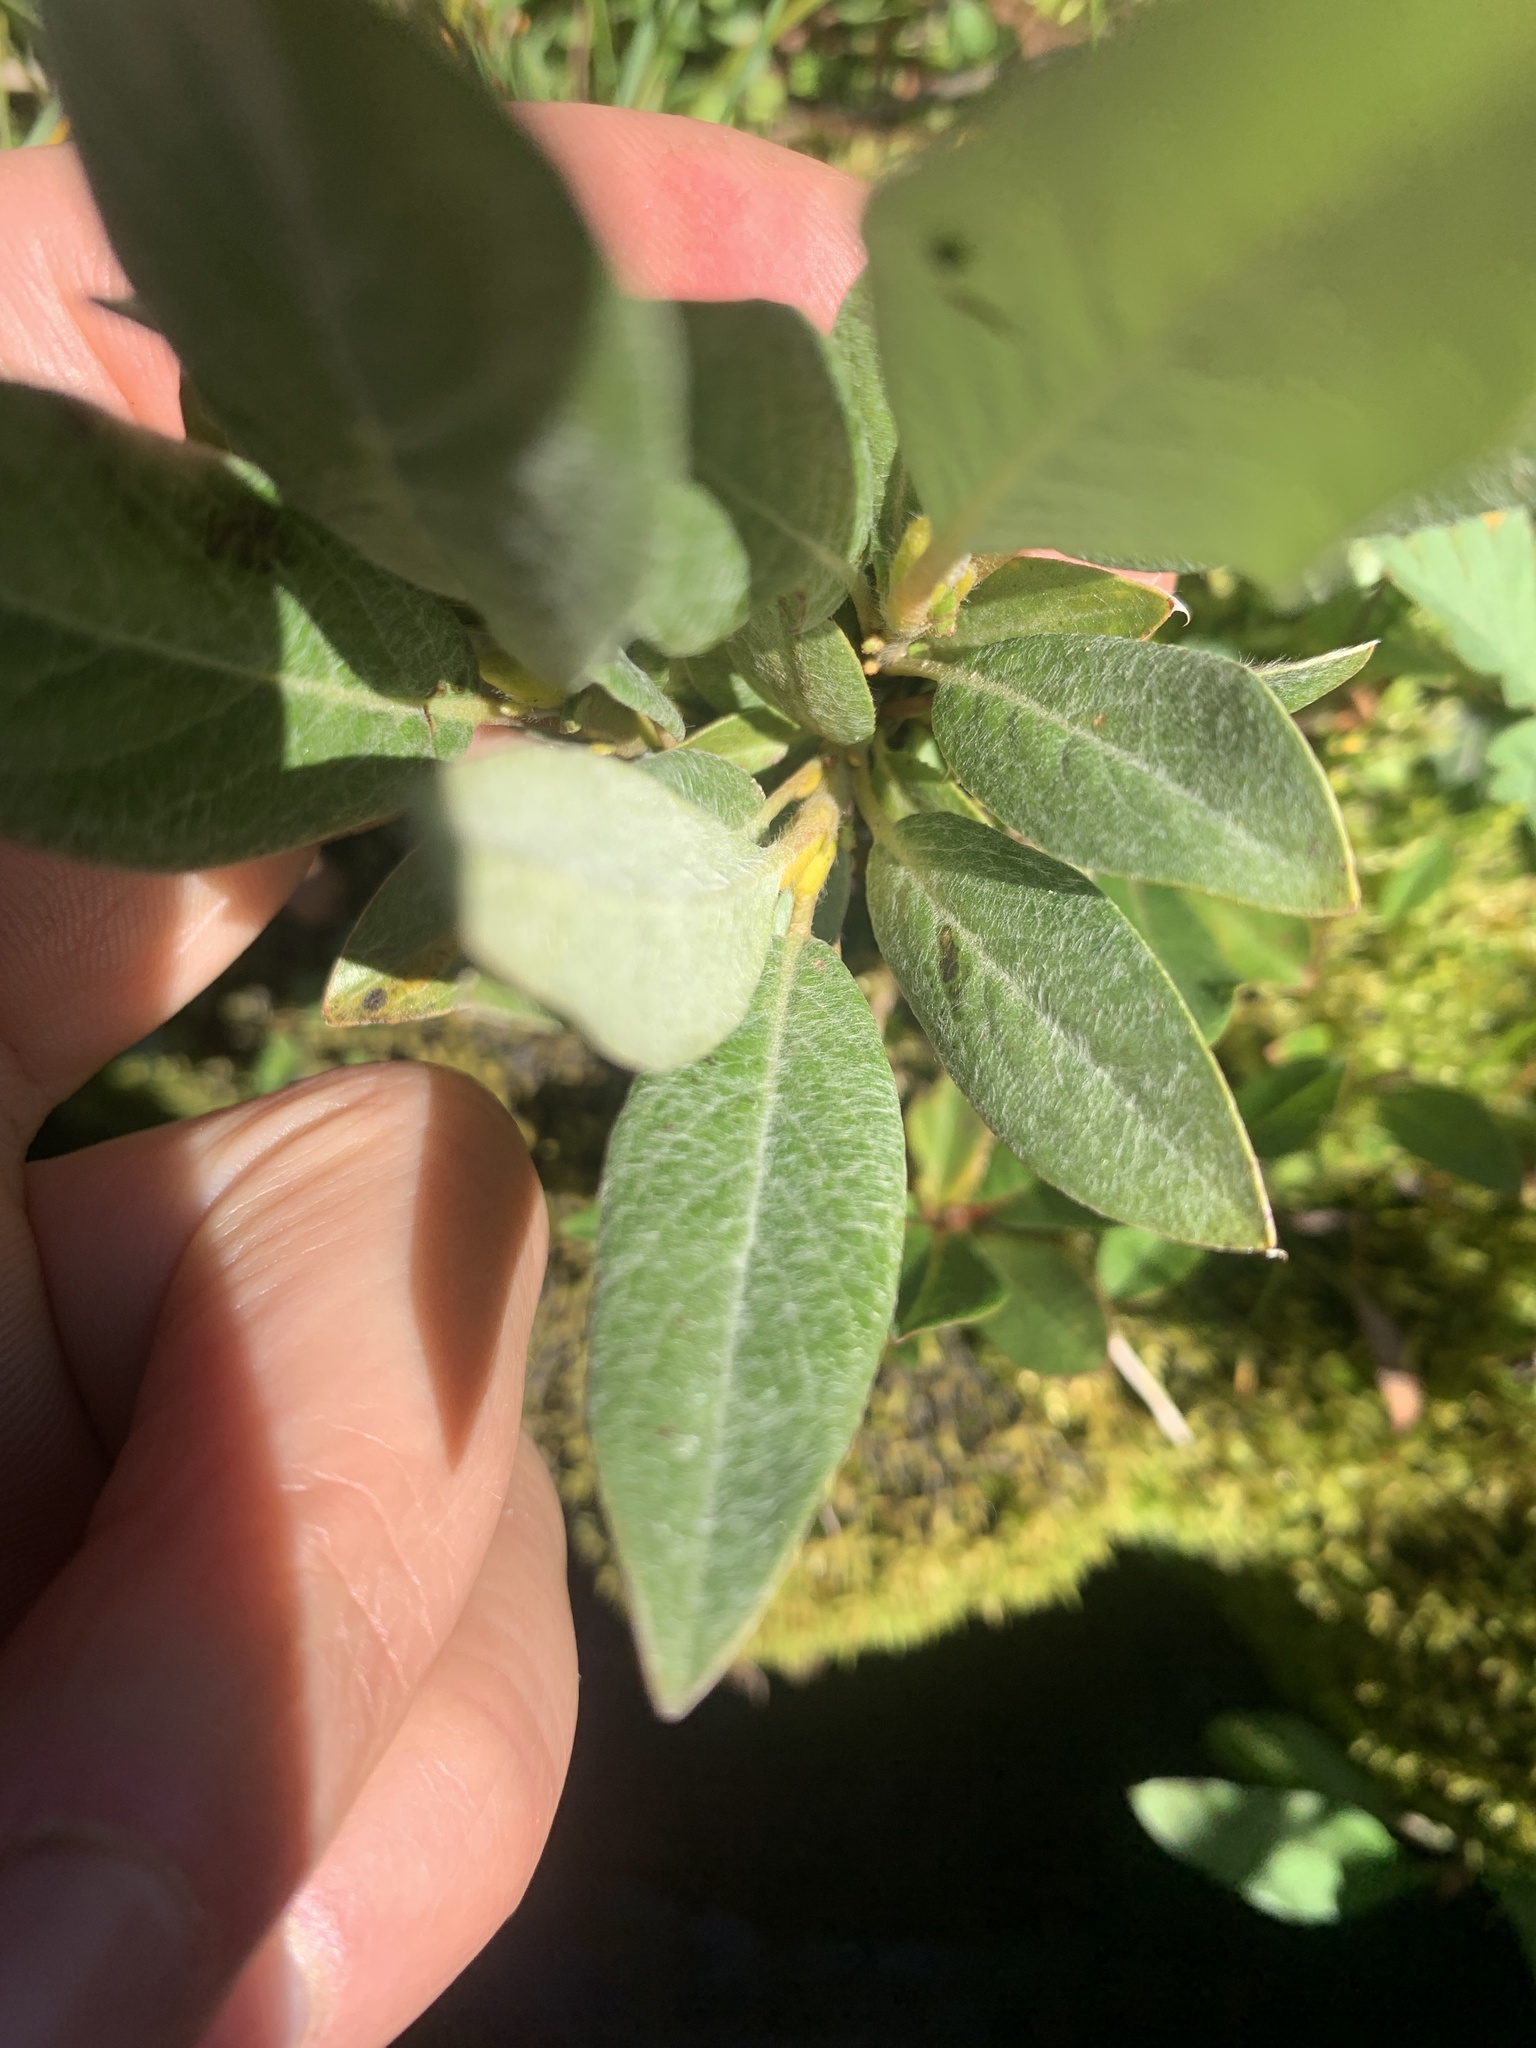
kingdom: Plantae
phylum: Tracheophyta
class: Magnoliopsida
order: Malpighiales
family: Salicaceae
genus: Salix
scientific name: Salix barrattiana
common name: Barratt's willow
